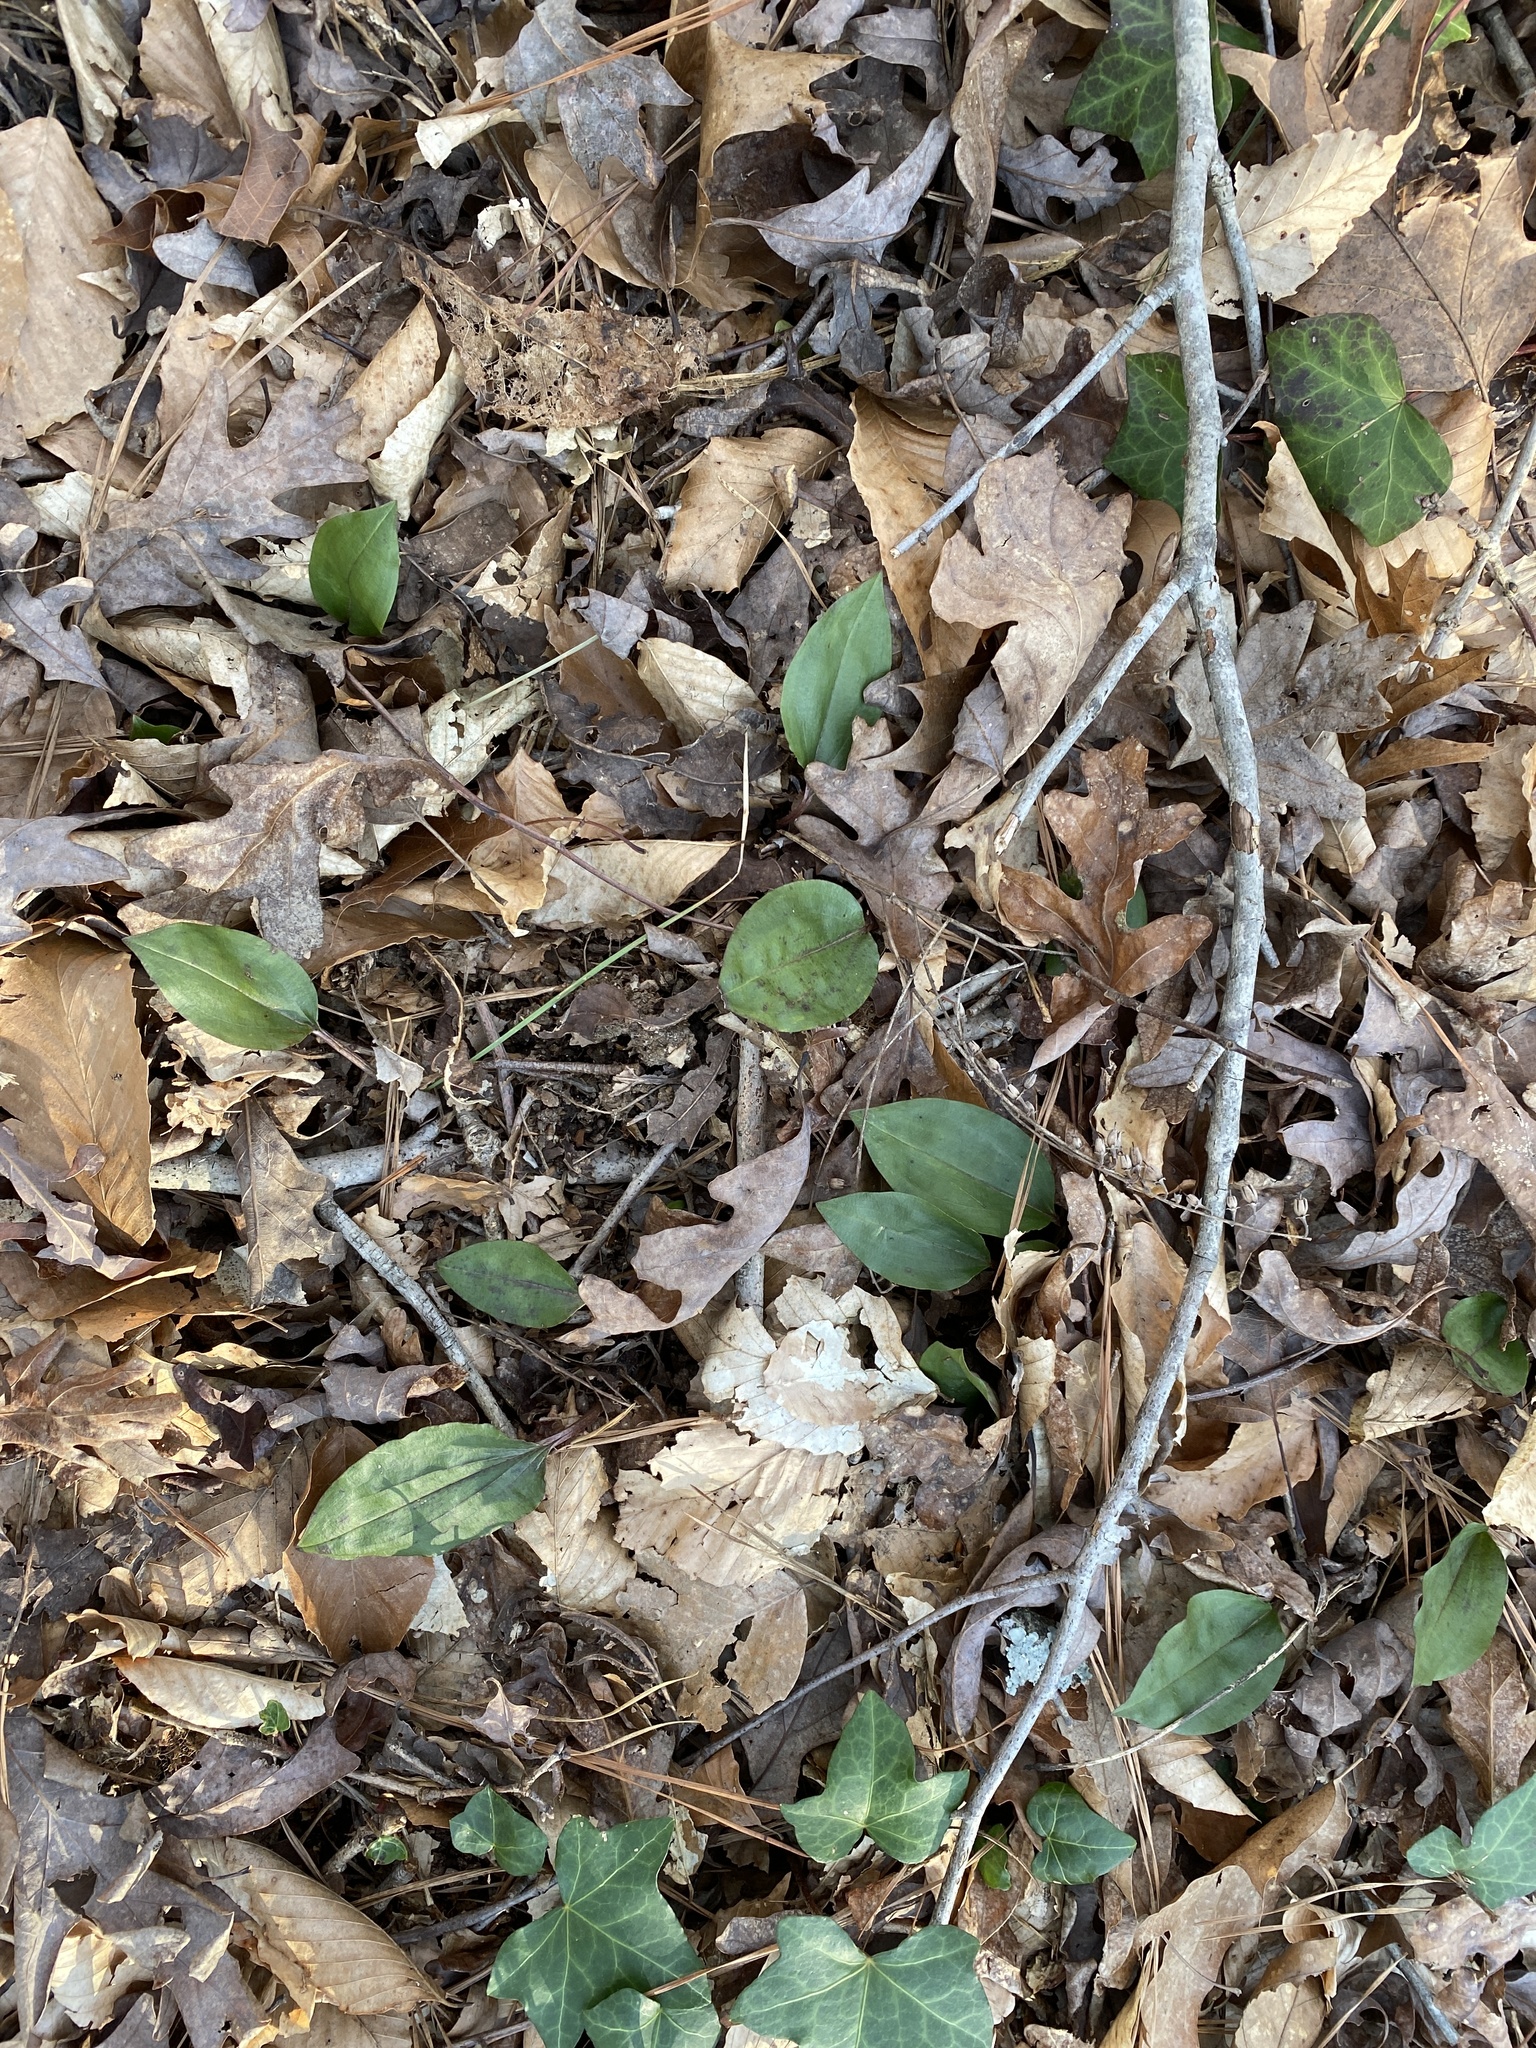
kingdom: Plantae
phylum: Tracheophyta
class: Liliopsida
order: Asparagales
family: Orchidaceae
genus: Tipularia
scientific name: Tipularia discolor
